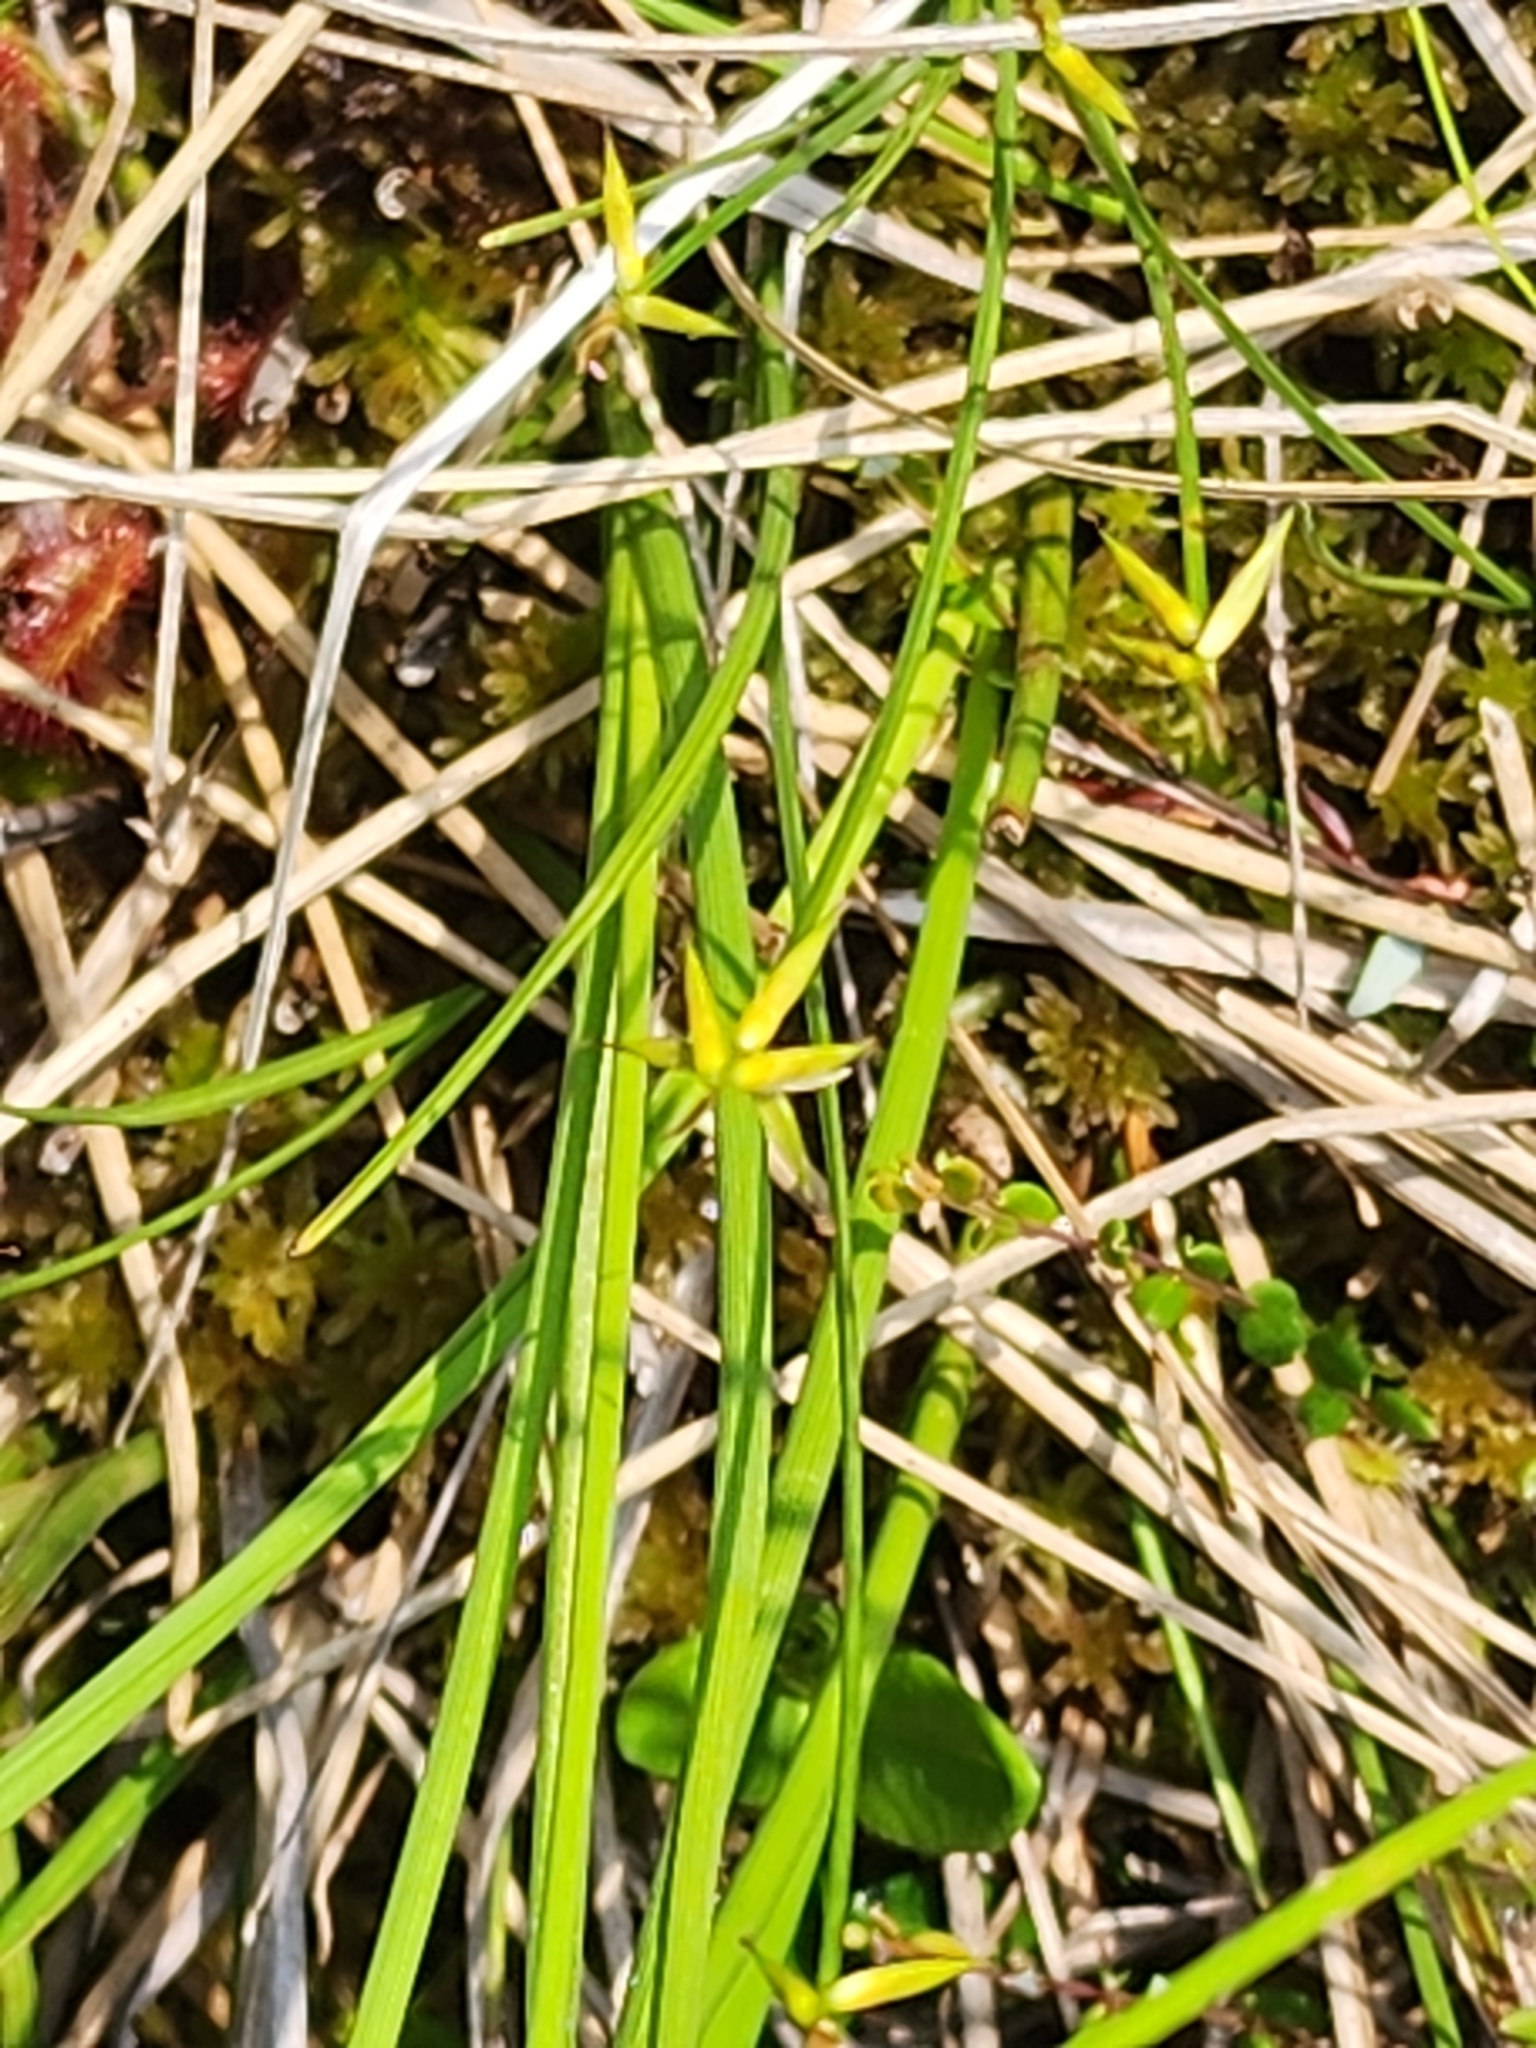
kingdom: Plantae
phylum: Tracheophyta
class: Liliopsida
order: Poales
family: Cyperaceae
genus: Carex
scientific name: Carex pauciflora
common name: Few-flowered sedge
